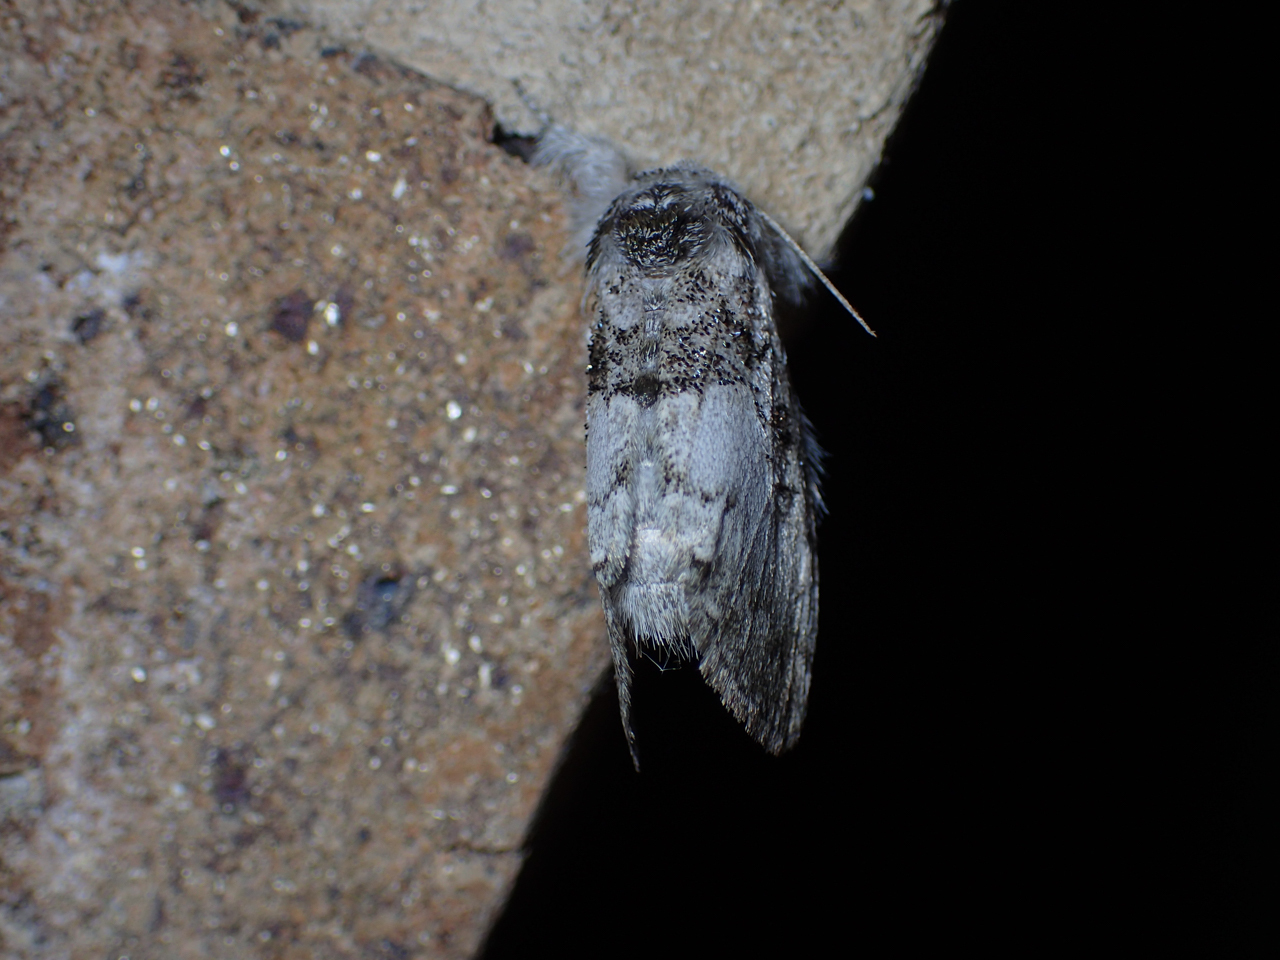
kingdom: Animalia
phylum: Arthropoda
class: Insecta
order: Lepidoptera
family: Noctuidae
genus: Colocasia
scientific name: Colocasia flavicornis
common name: Saddled yellowhorn
